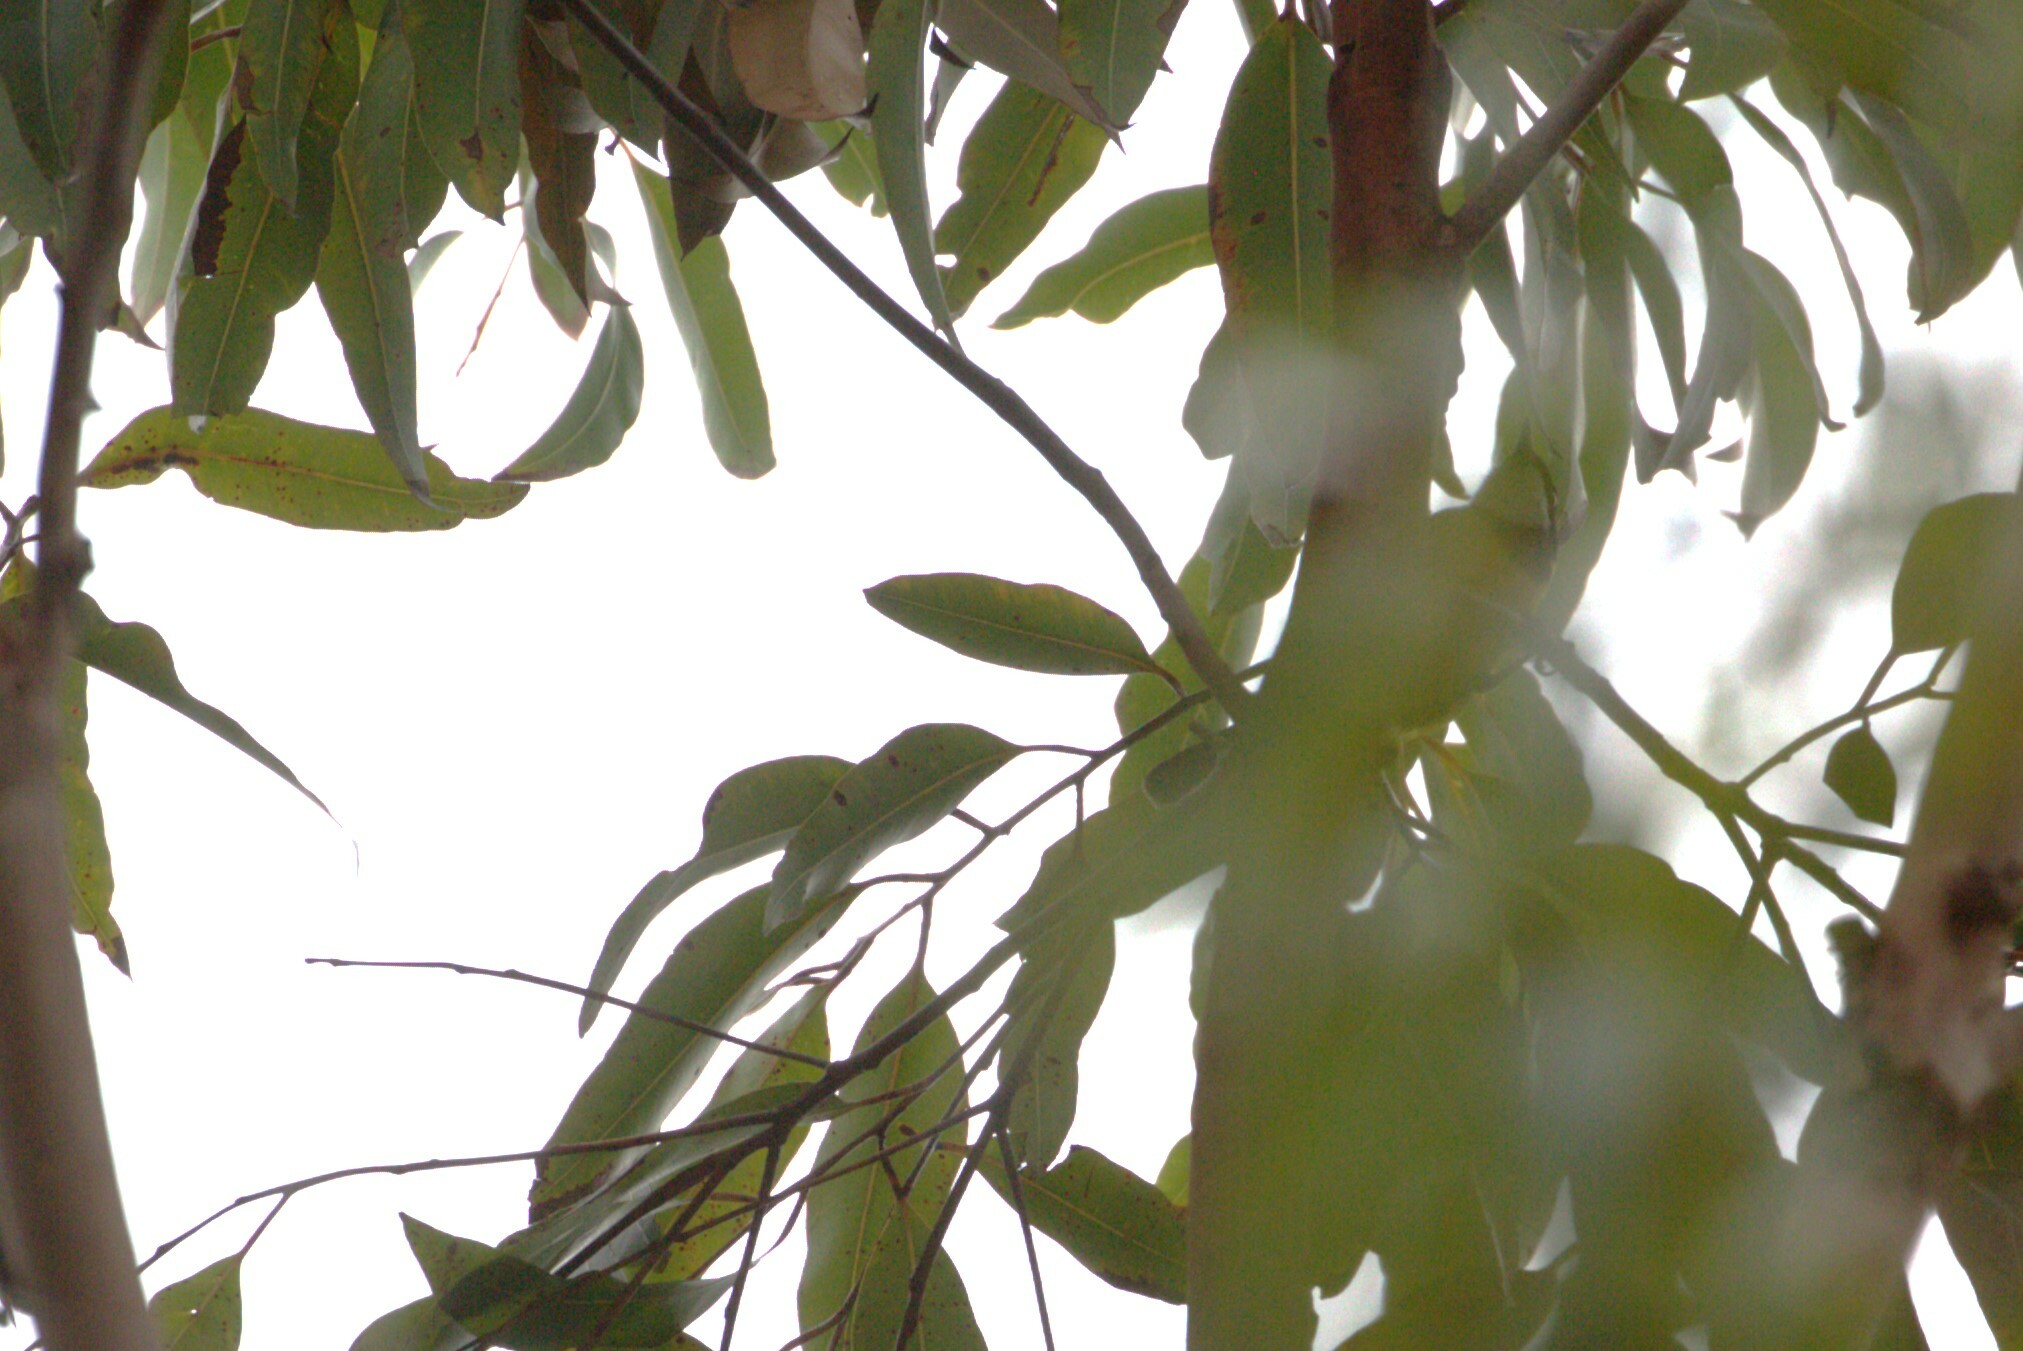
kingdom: Animalia
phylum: Chordata
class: Aves
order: Passeriformes
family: Pachycephalidae
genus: Pachycephala
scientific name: Pachycephala pectoralis
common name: Australian golden whistler
